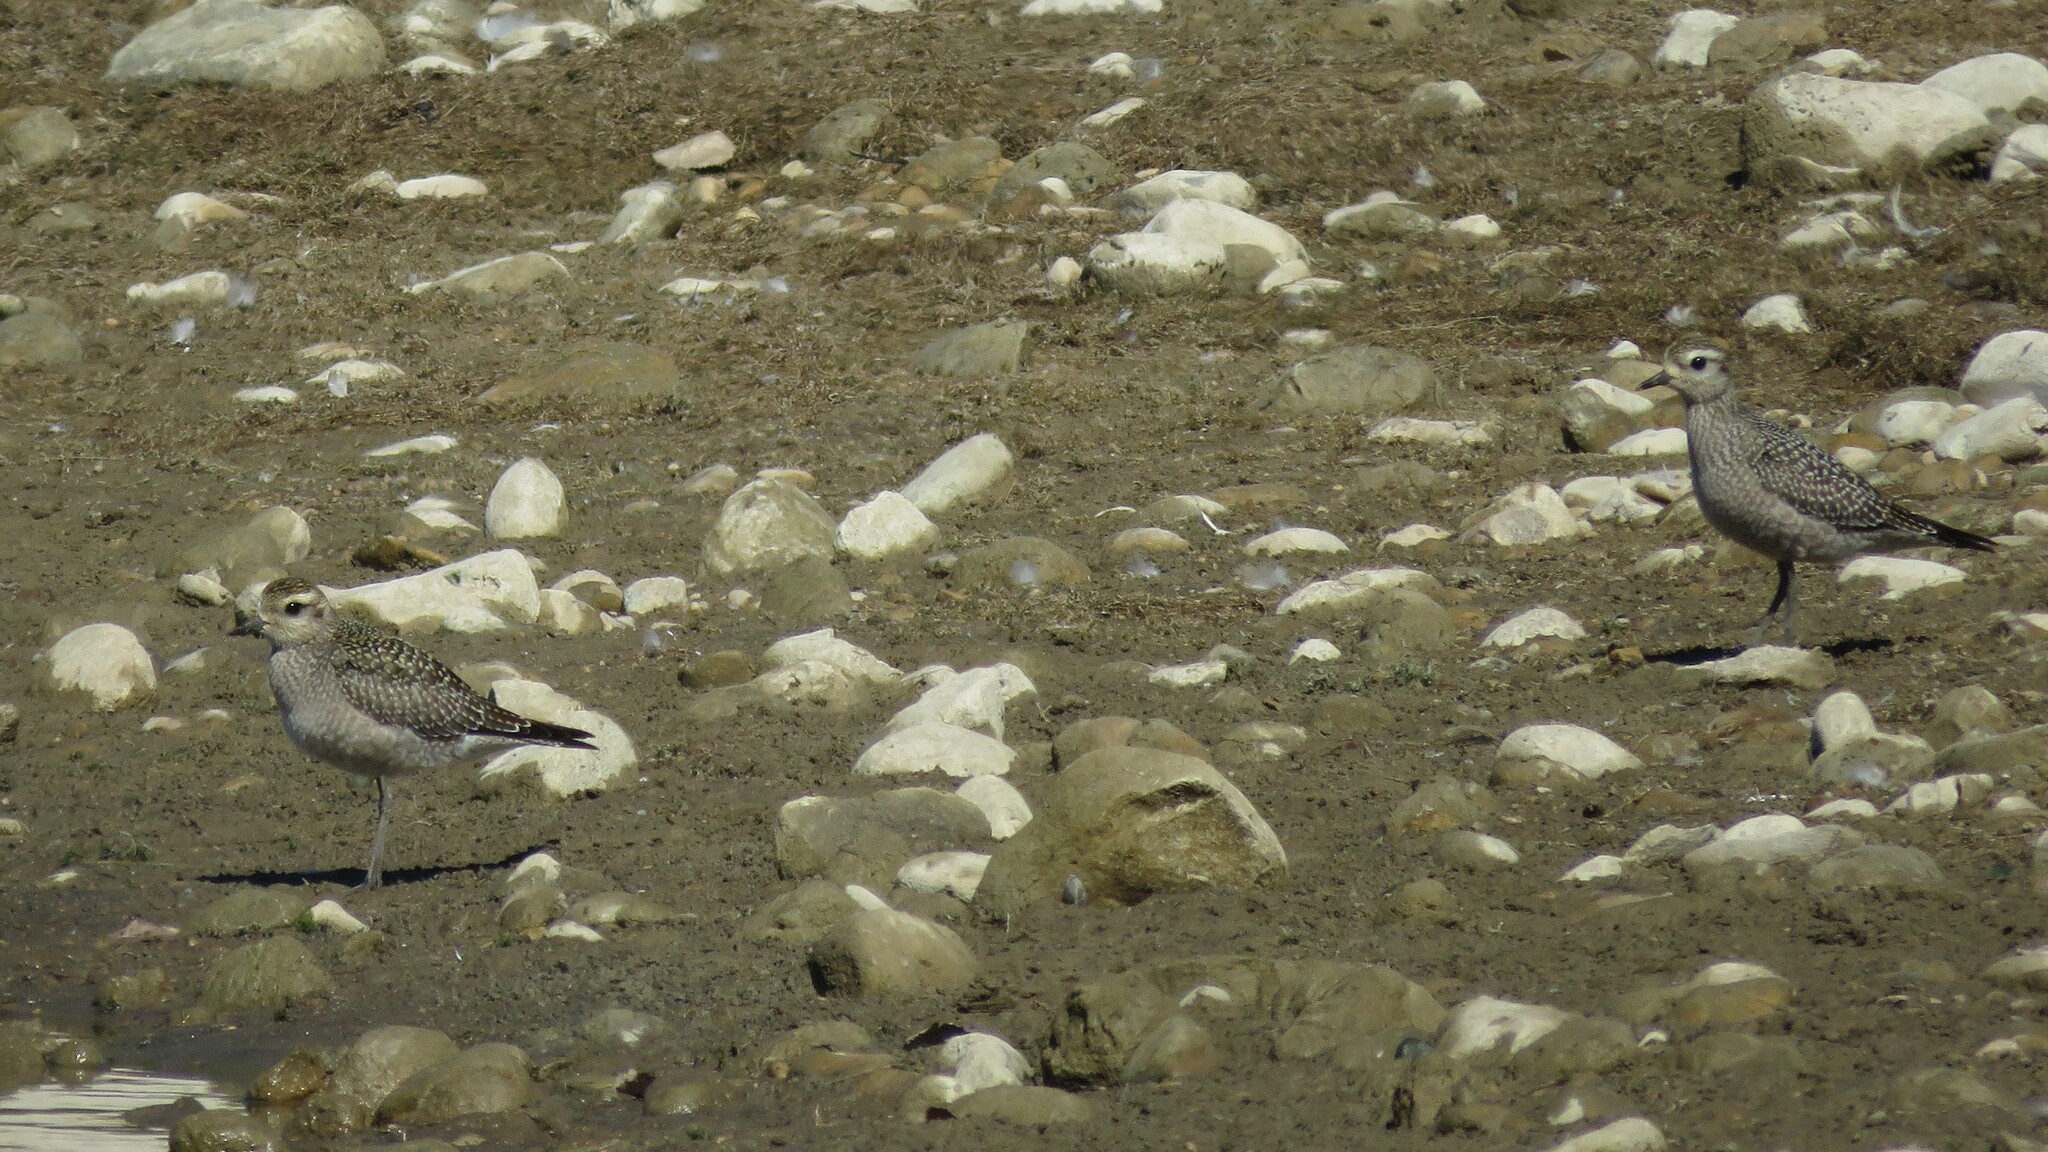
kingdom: Animalia
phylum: Chordata
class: Aves
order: Charadriiformes
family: Charadriidae
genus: Pluvialis
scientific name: Pluvialis dominica
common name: American golden plover
